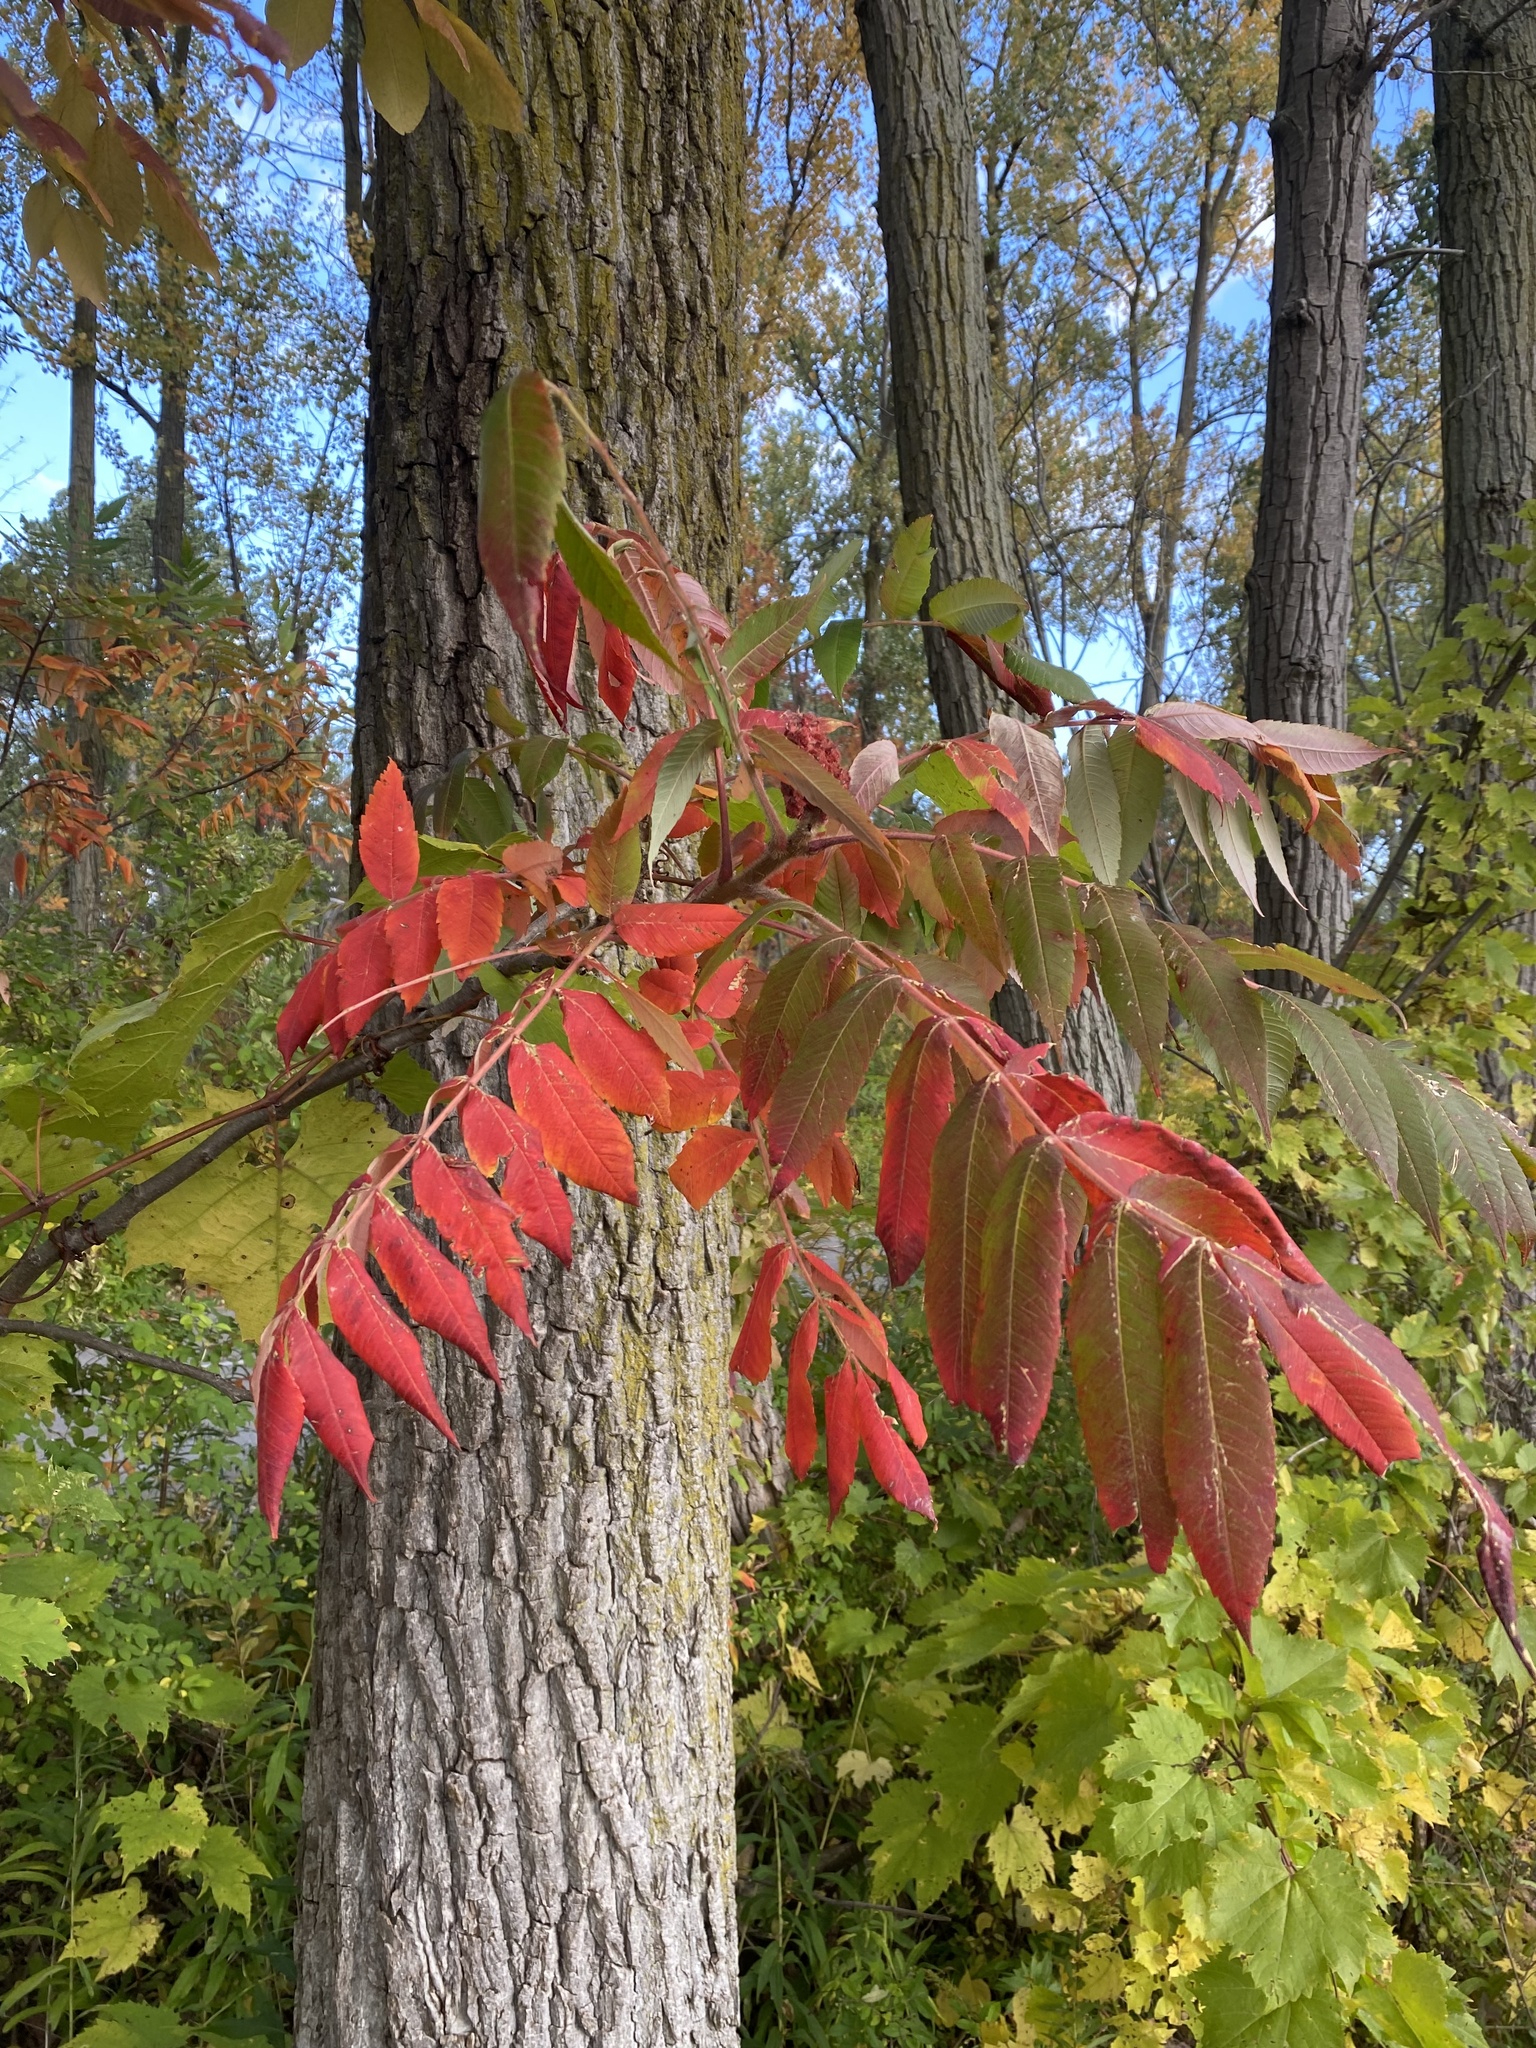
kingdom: Plantae
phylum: Tracheophyta
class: Magnoliopsida
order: Sapindales
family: Anacardiaceae
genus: Rhus
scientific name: Rhus typhina
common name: Staghorn sumac
